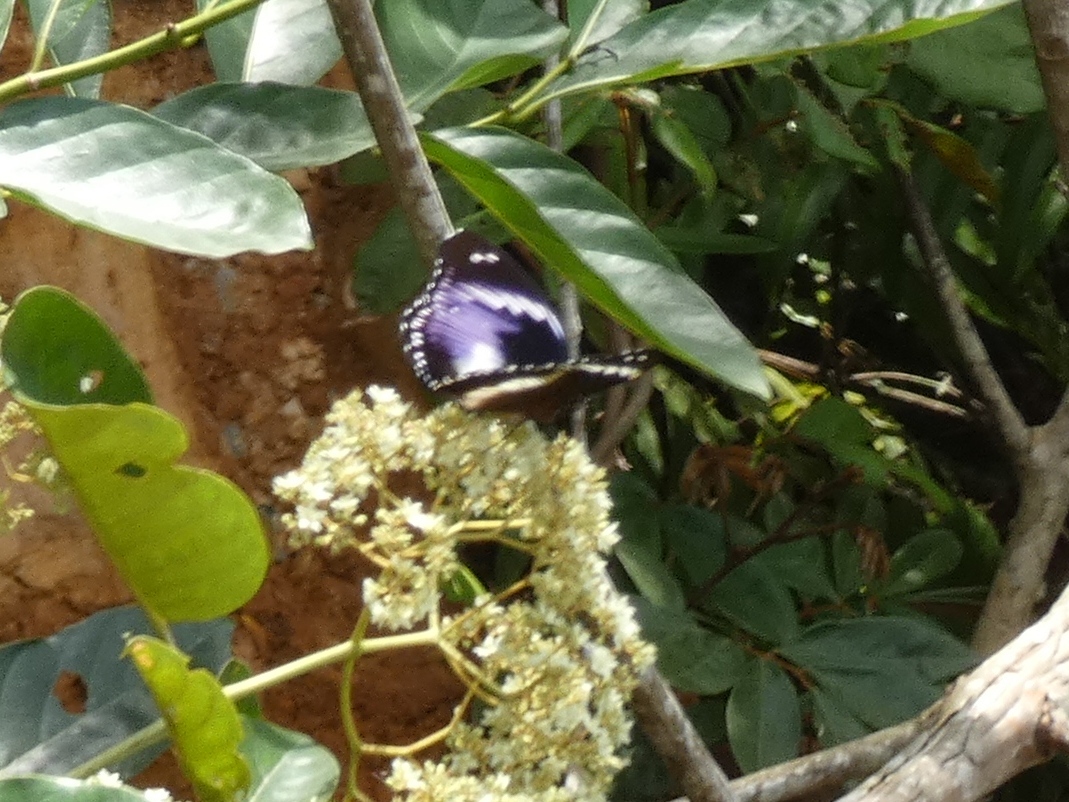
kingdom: Animalia
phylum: Arthropoda
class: Insecta
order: Lepidoptera
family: Nymphalidae
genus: Hypolimnas
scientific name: Hypolimnas salmacis
